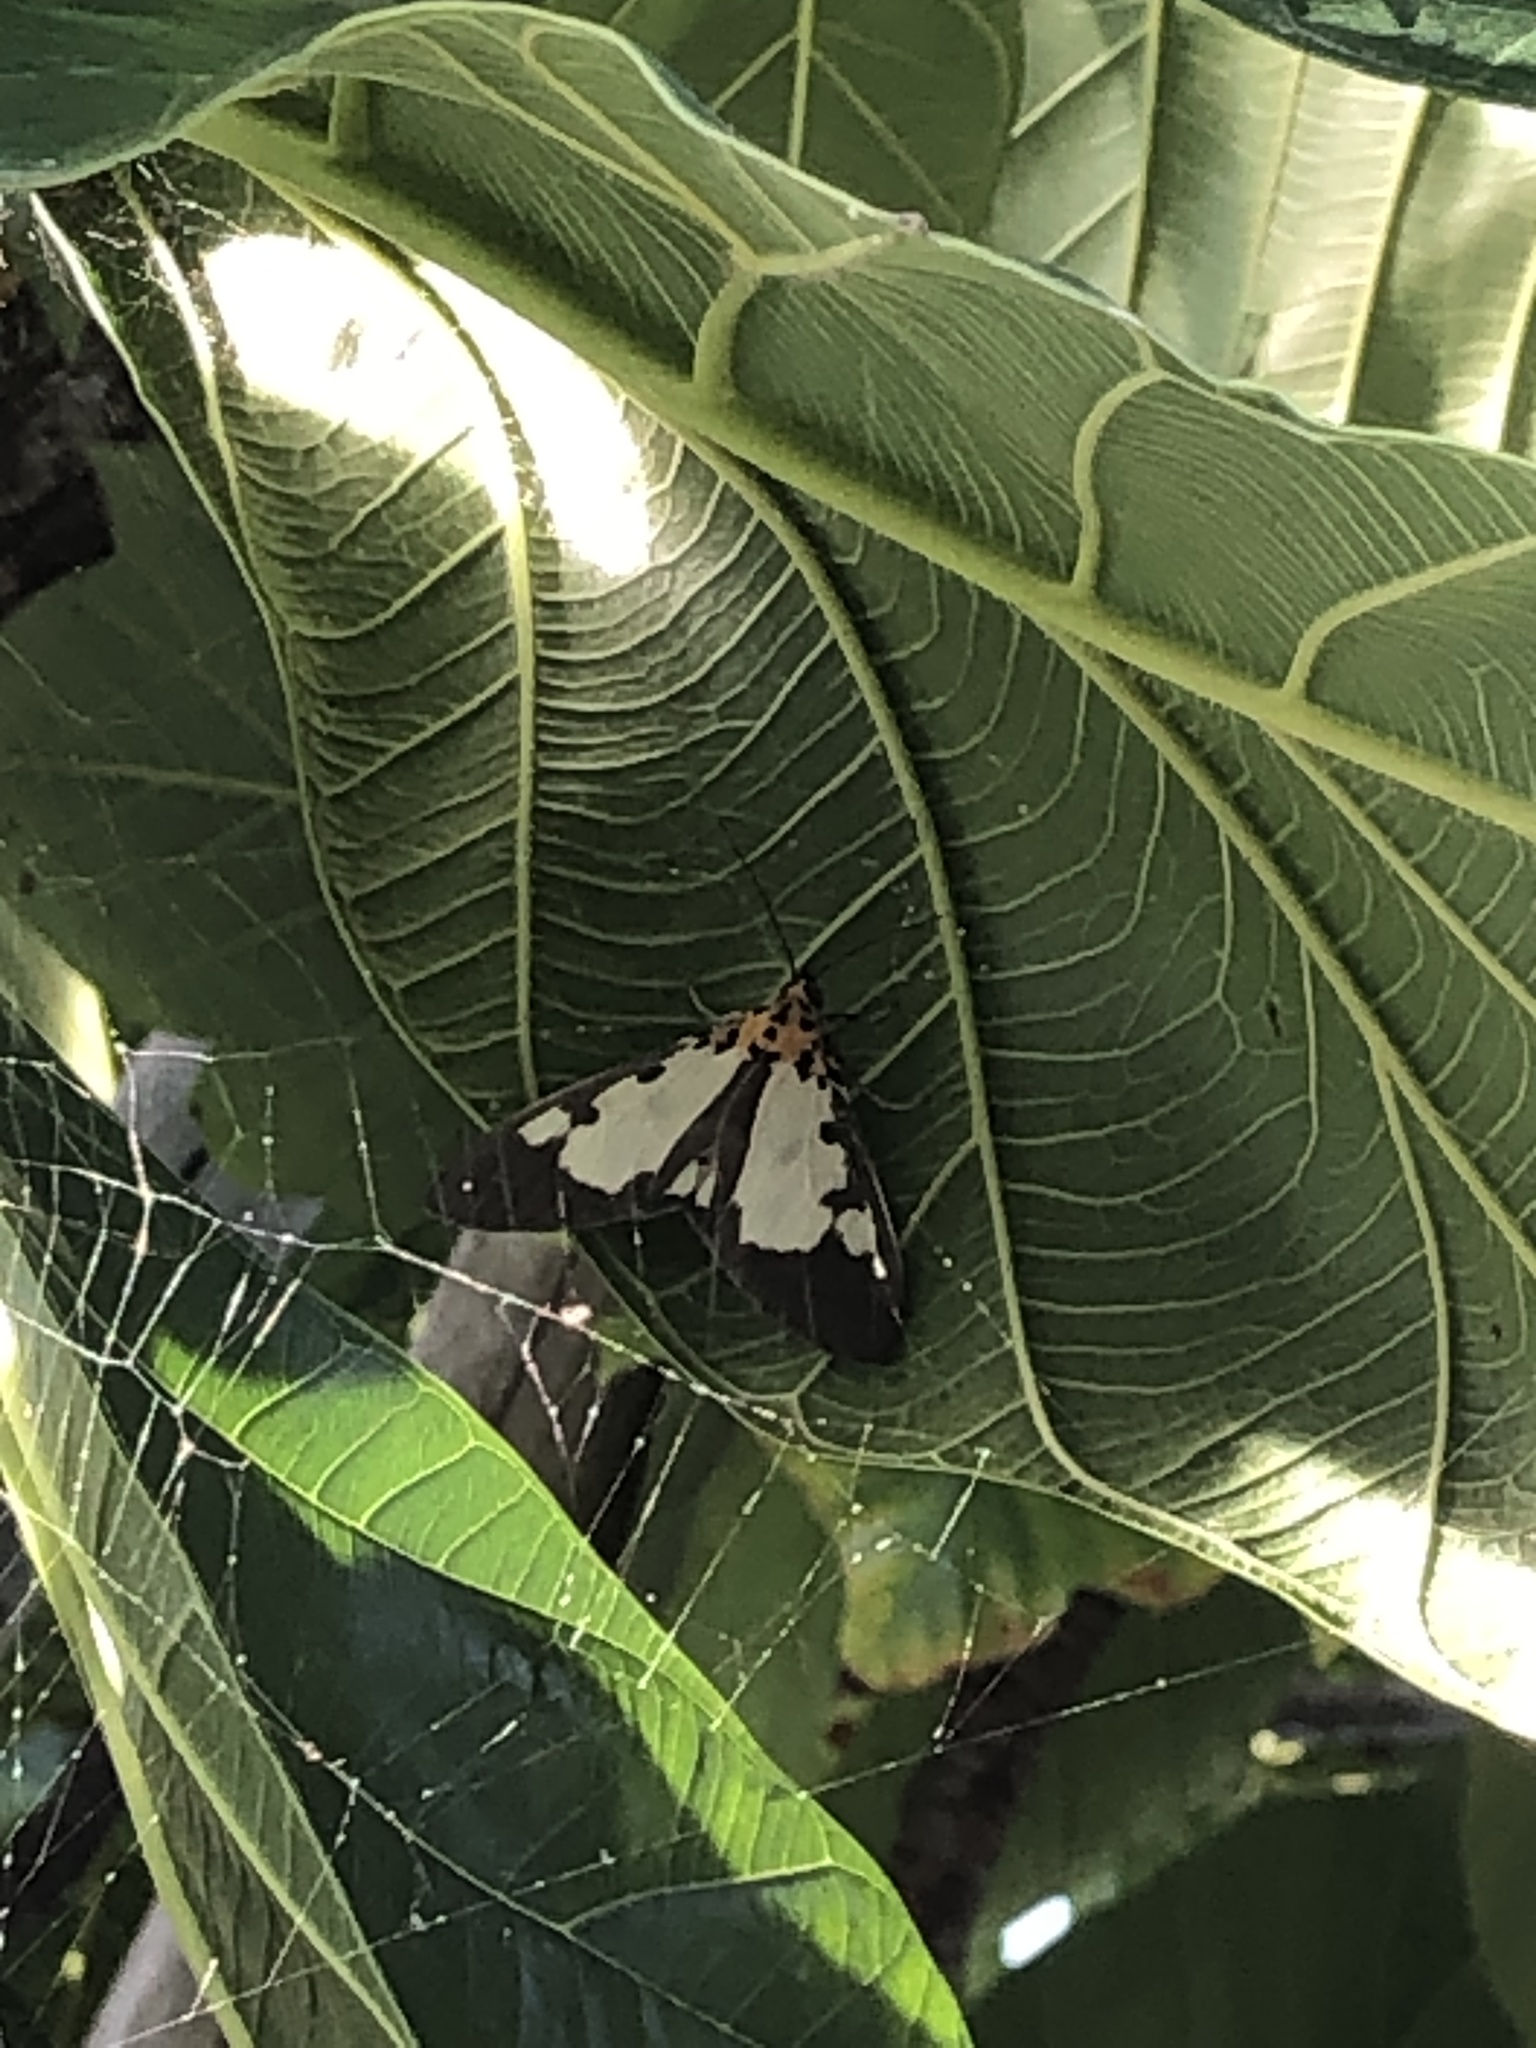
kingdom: Animalia
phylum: Arthropoda
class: Insecta
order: Lepidoptera
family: Erebidae
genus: Asota
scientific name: Asota plana
